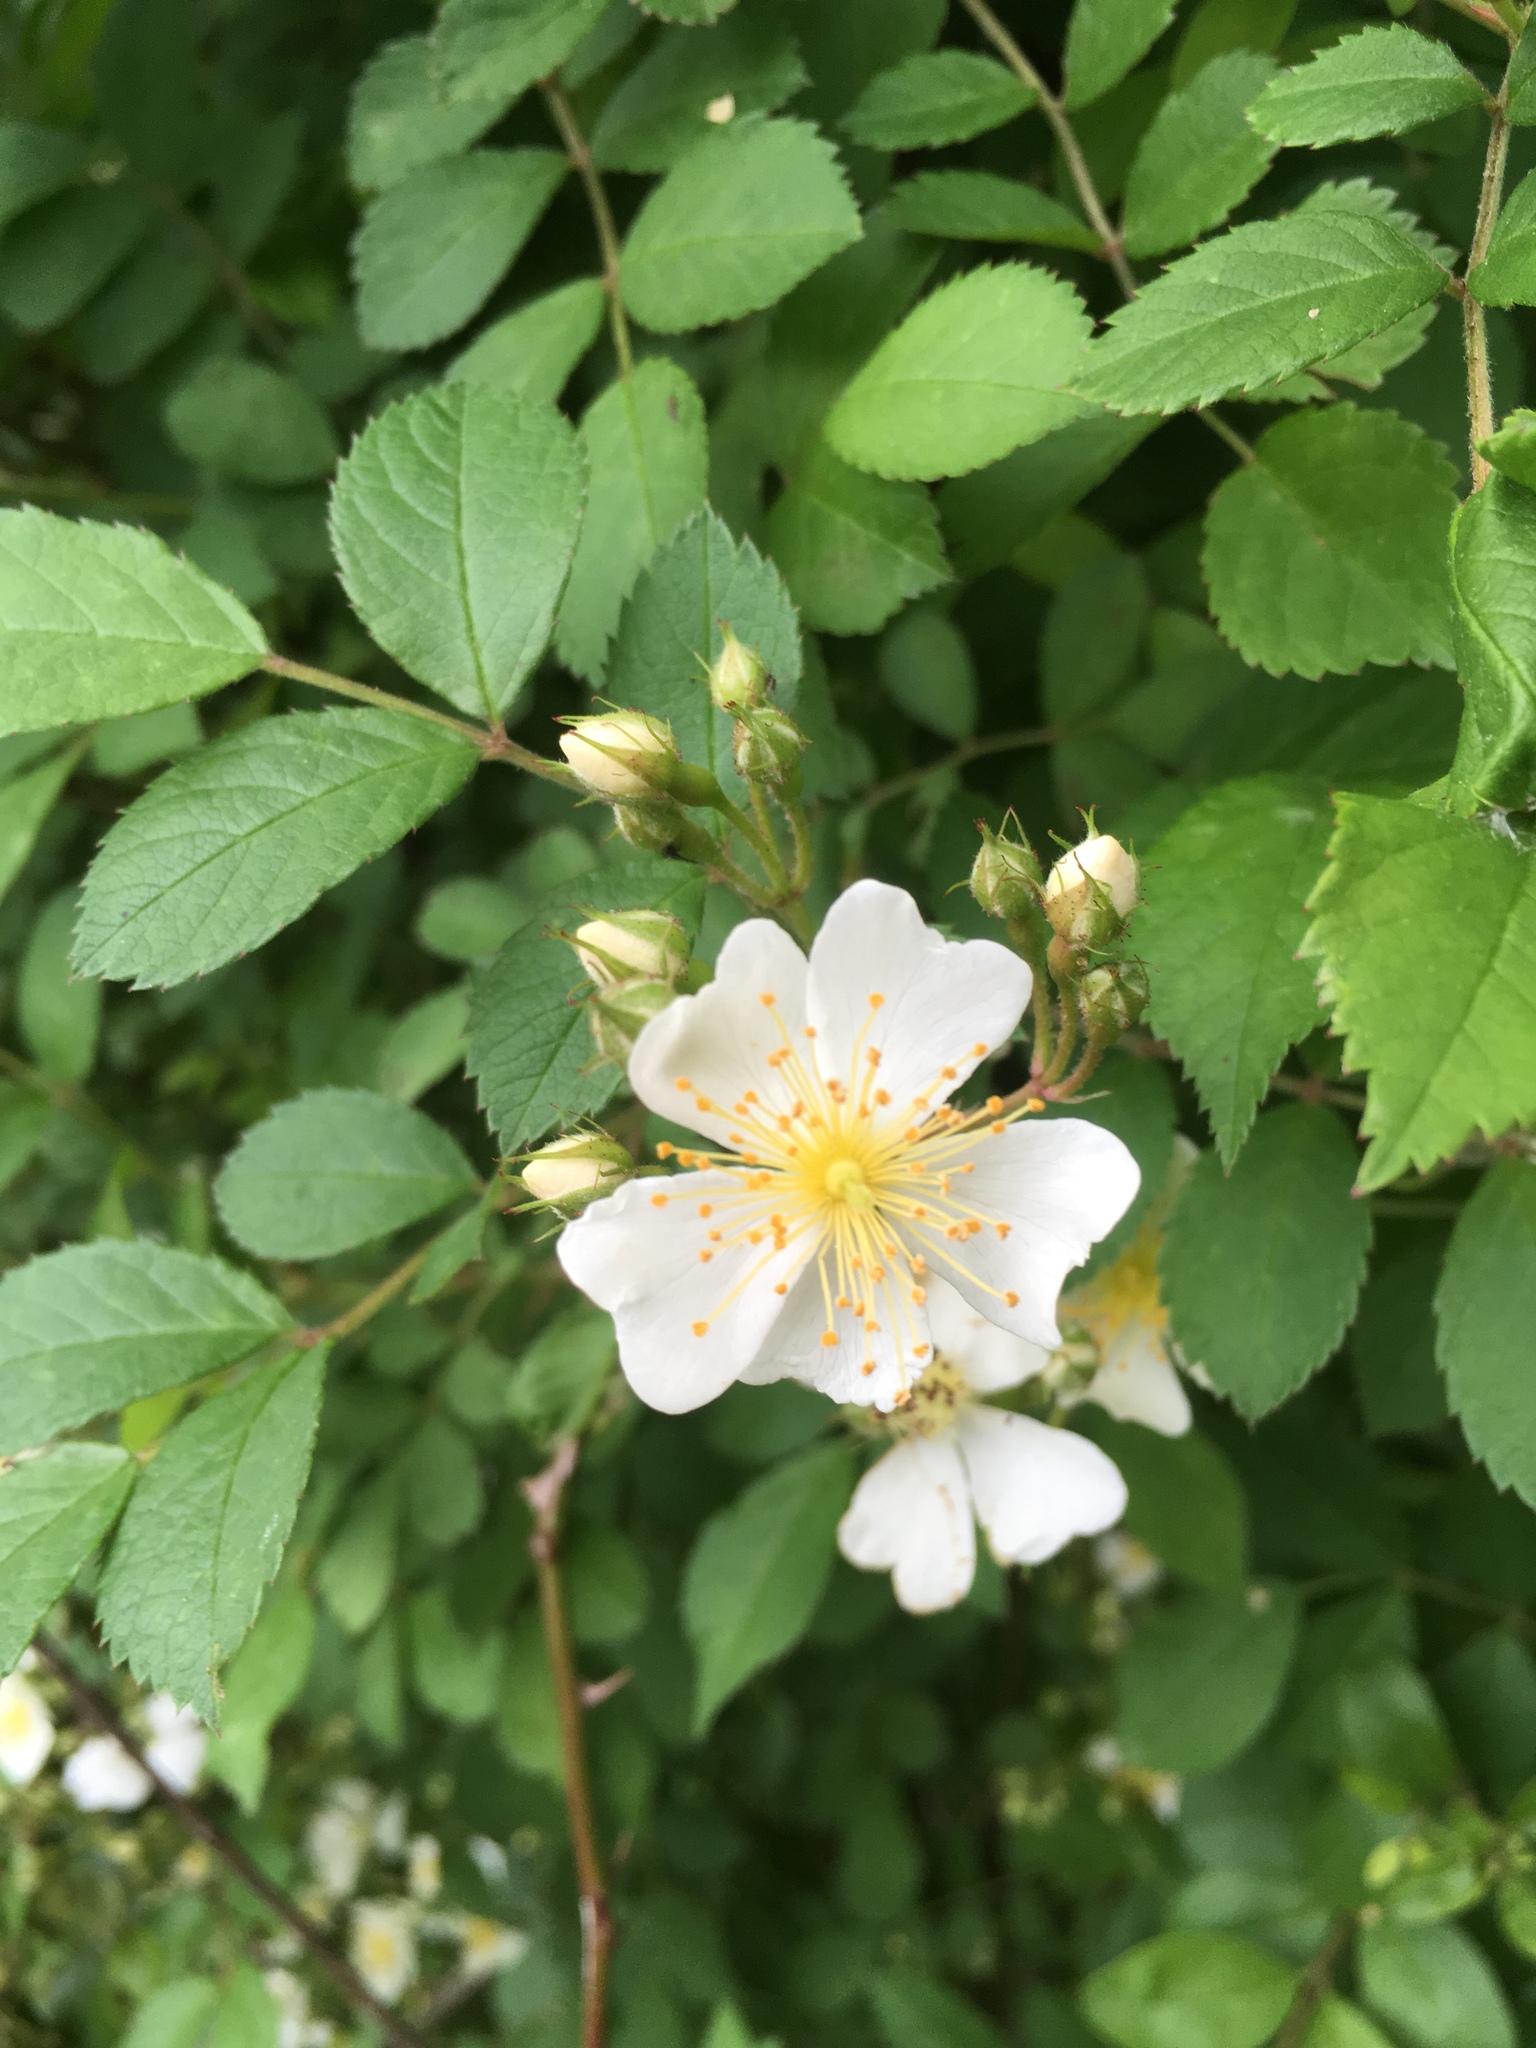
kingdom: Plantae
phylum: Tracheophyta
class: Magnoliopsida
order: Rosales
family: Rosaceae
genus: Rosa
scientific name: Rosa multiflora
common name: Multiflora rose
